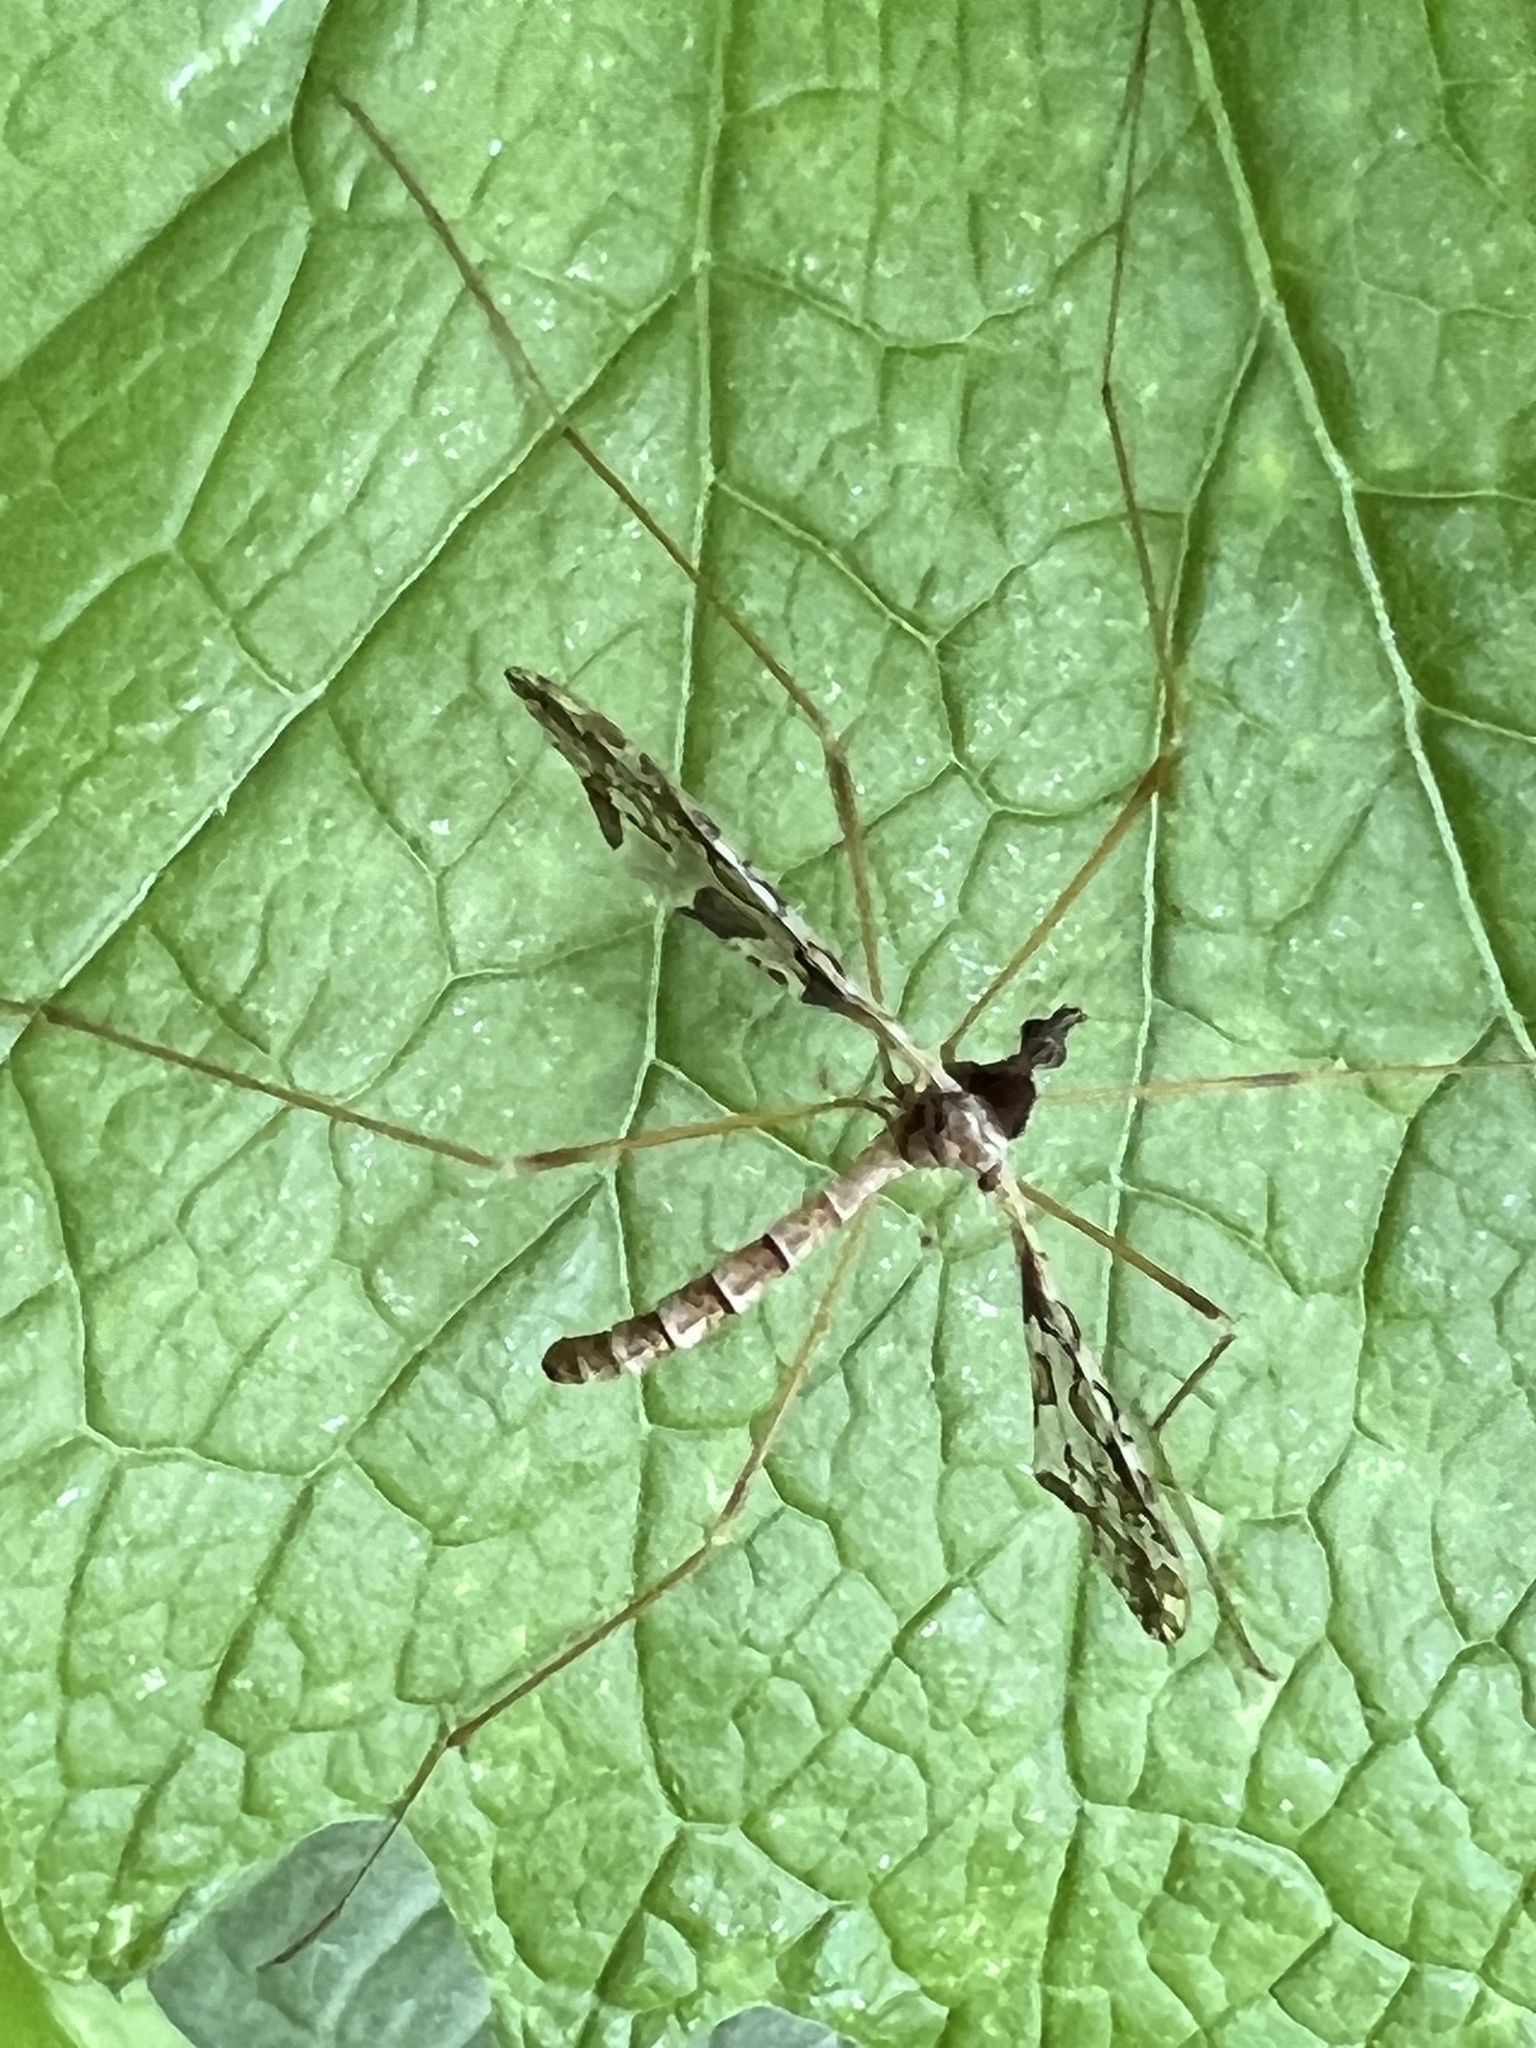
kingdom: Animalia
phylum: Arthropoda
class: Insecta
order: Diptera
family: Limoniidae
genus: Epiphragma
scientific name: Epiphragma solatrix
